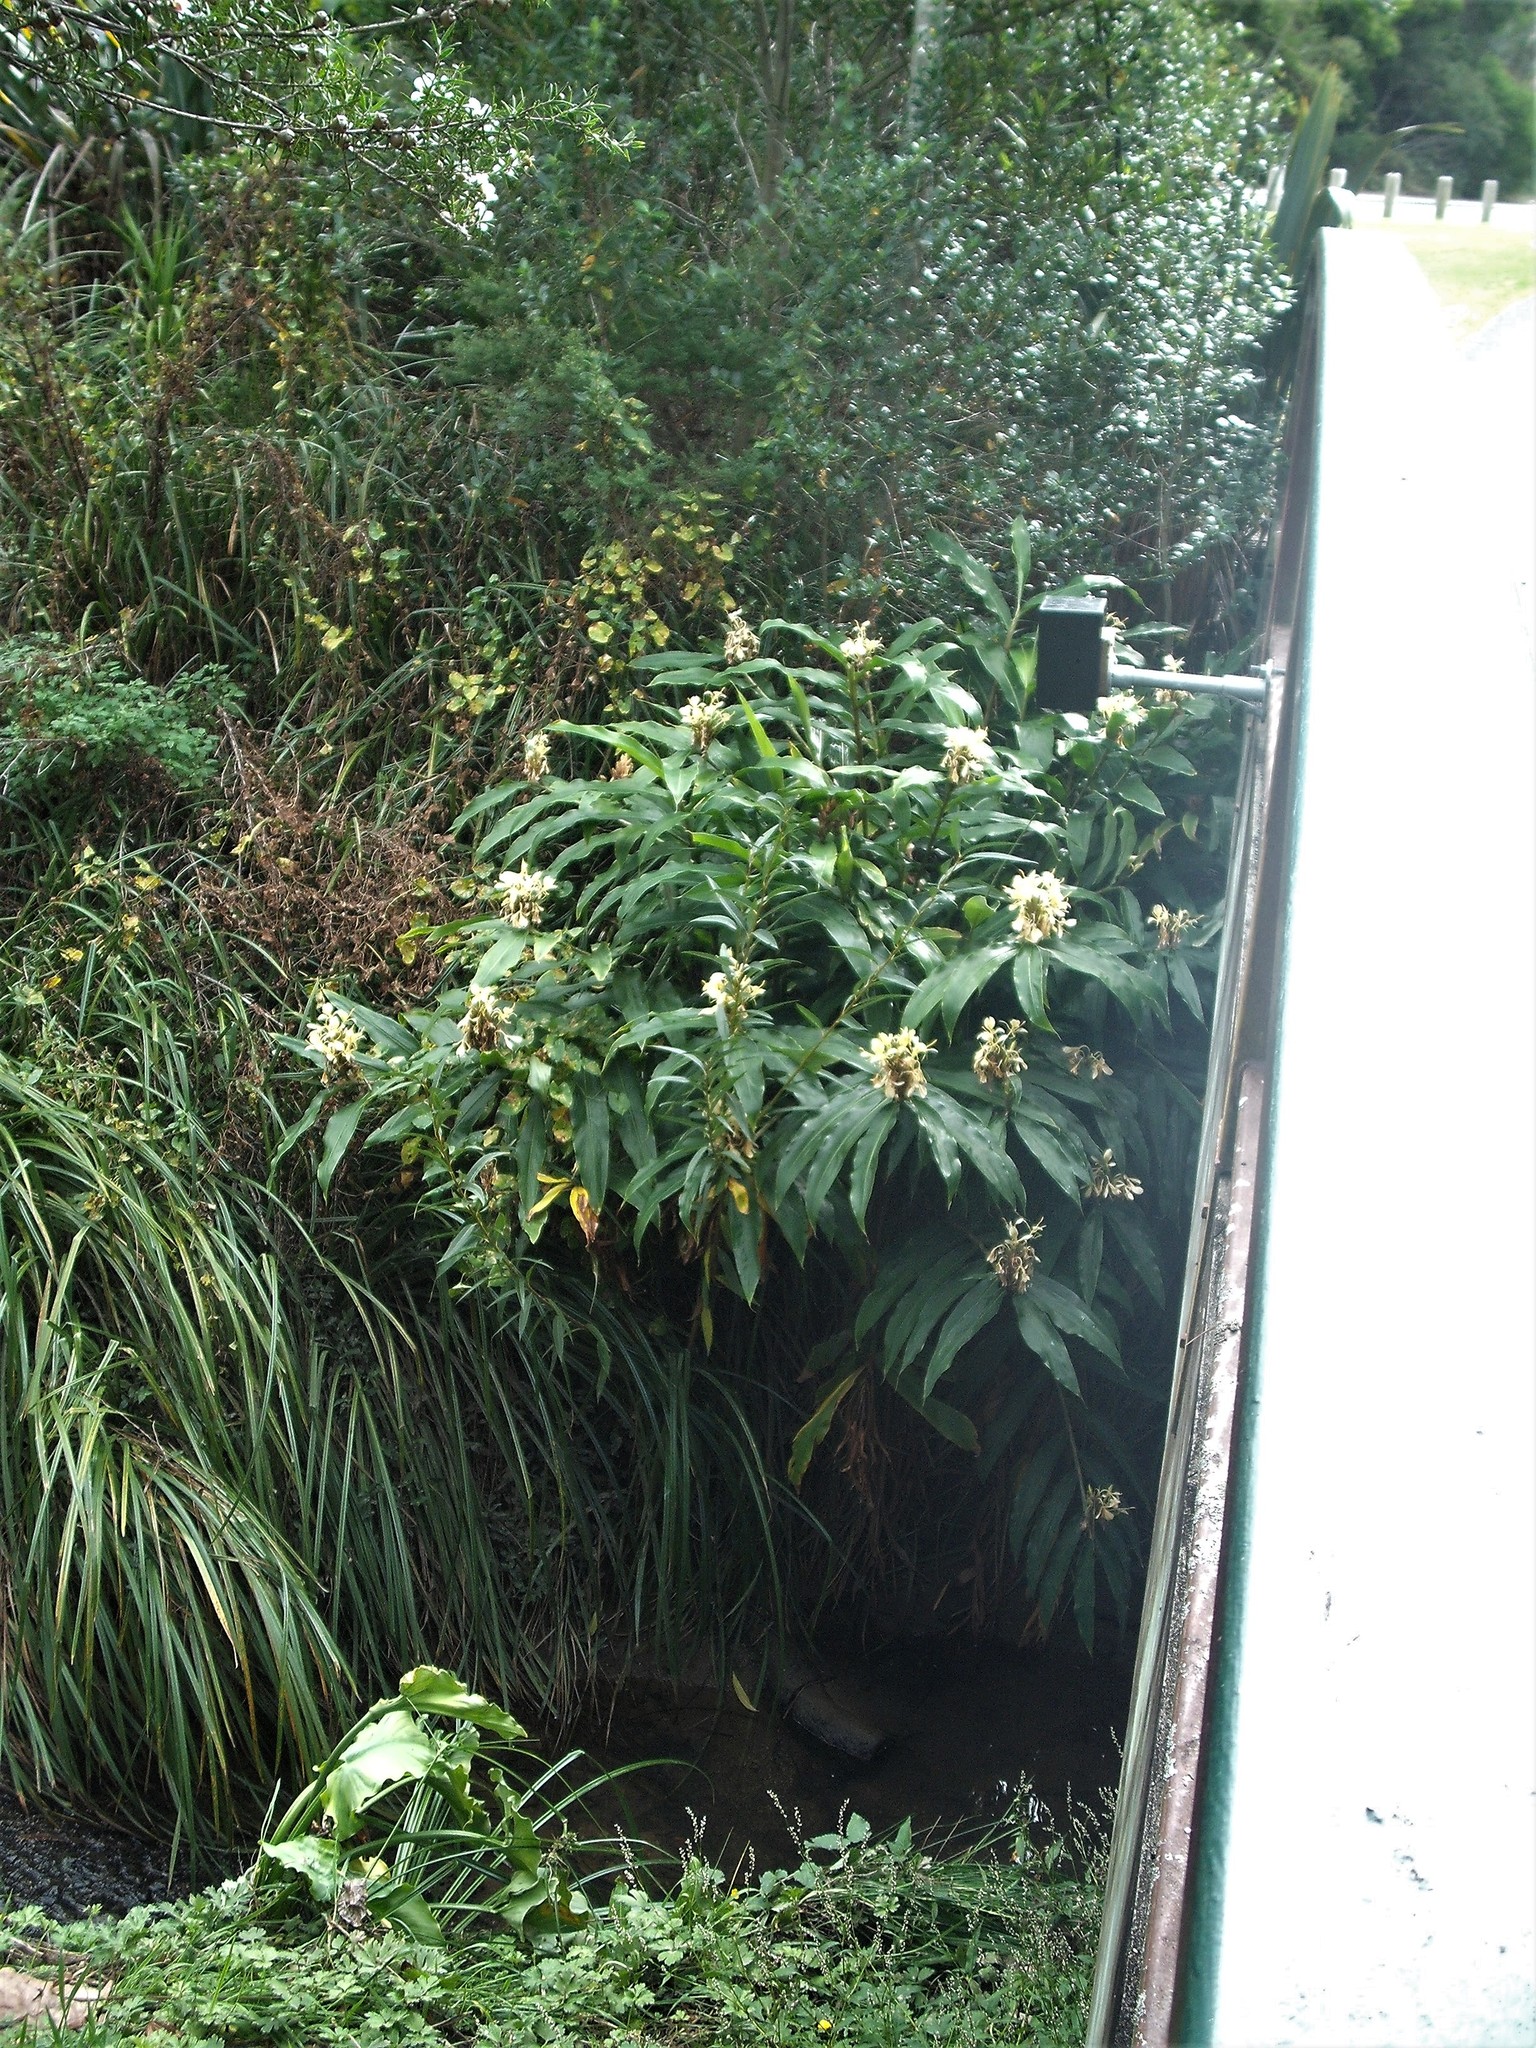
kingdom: Plantae
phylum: Tracheophyta
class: Liliopsida
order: Zingiberales
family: Zingiberaceae
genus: Hedychium
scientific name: Hedychium flavescens
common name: Yellow ginger
